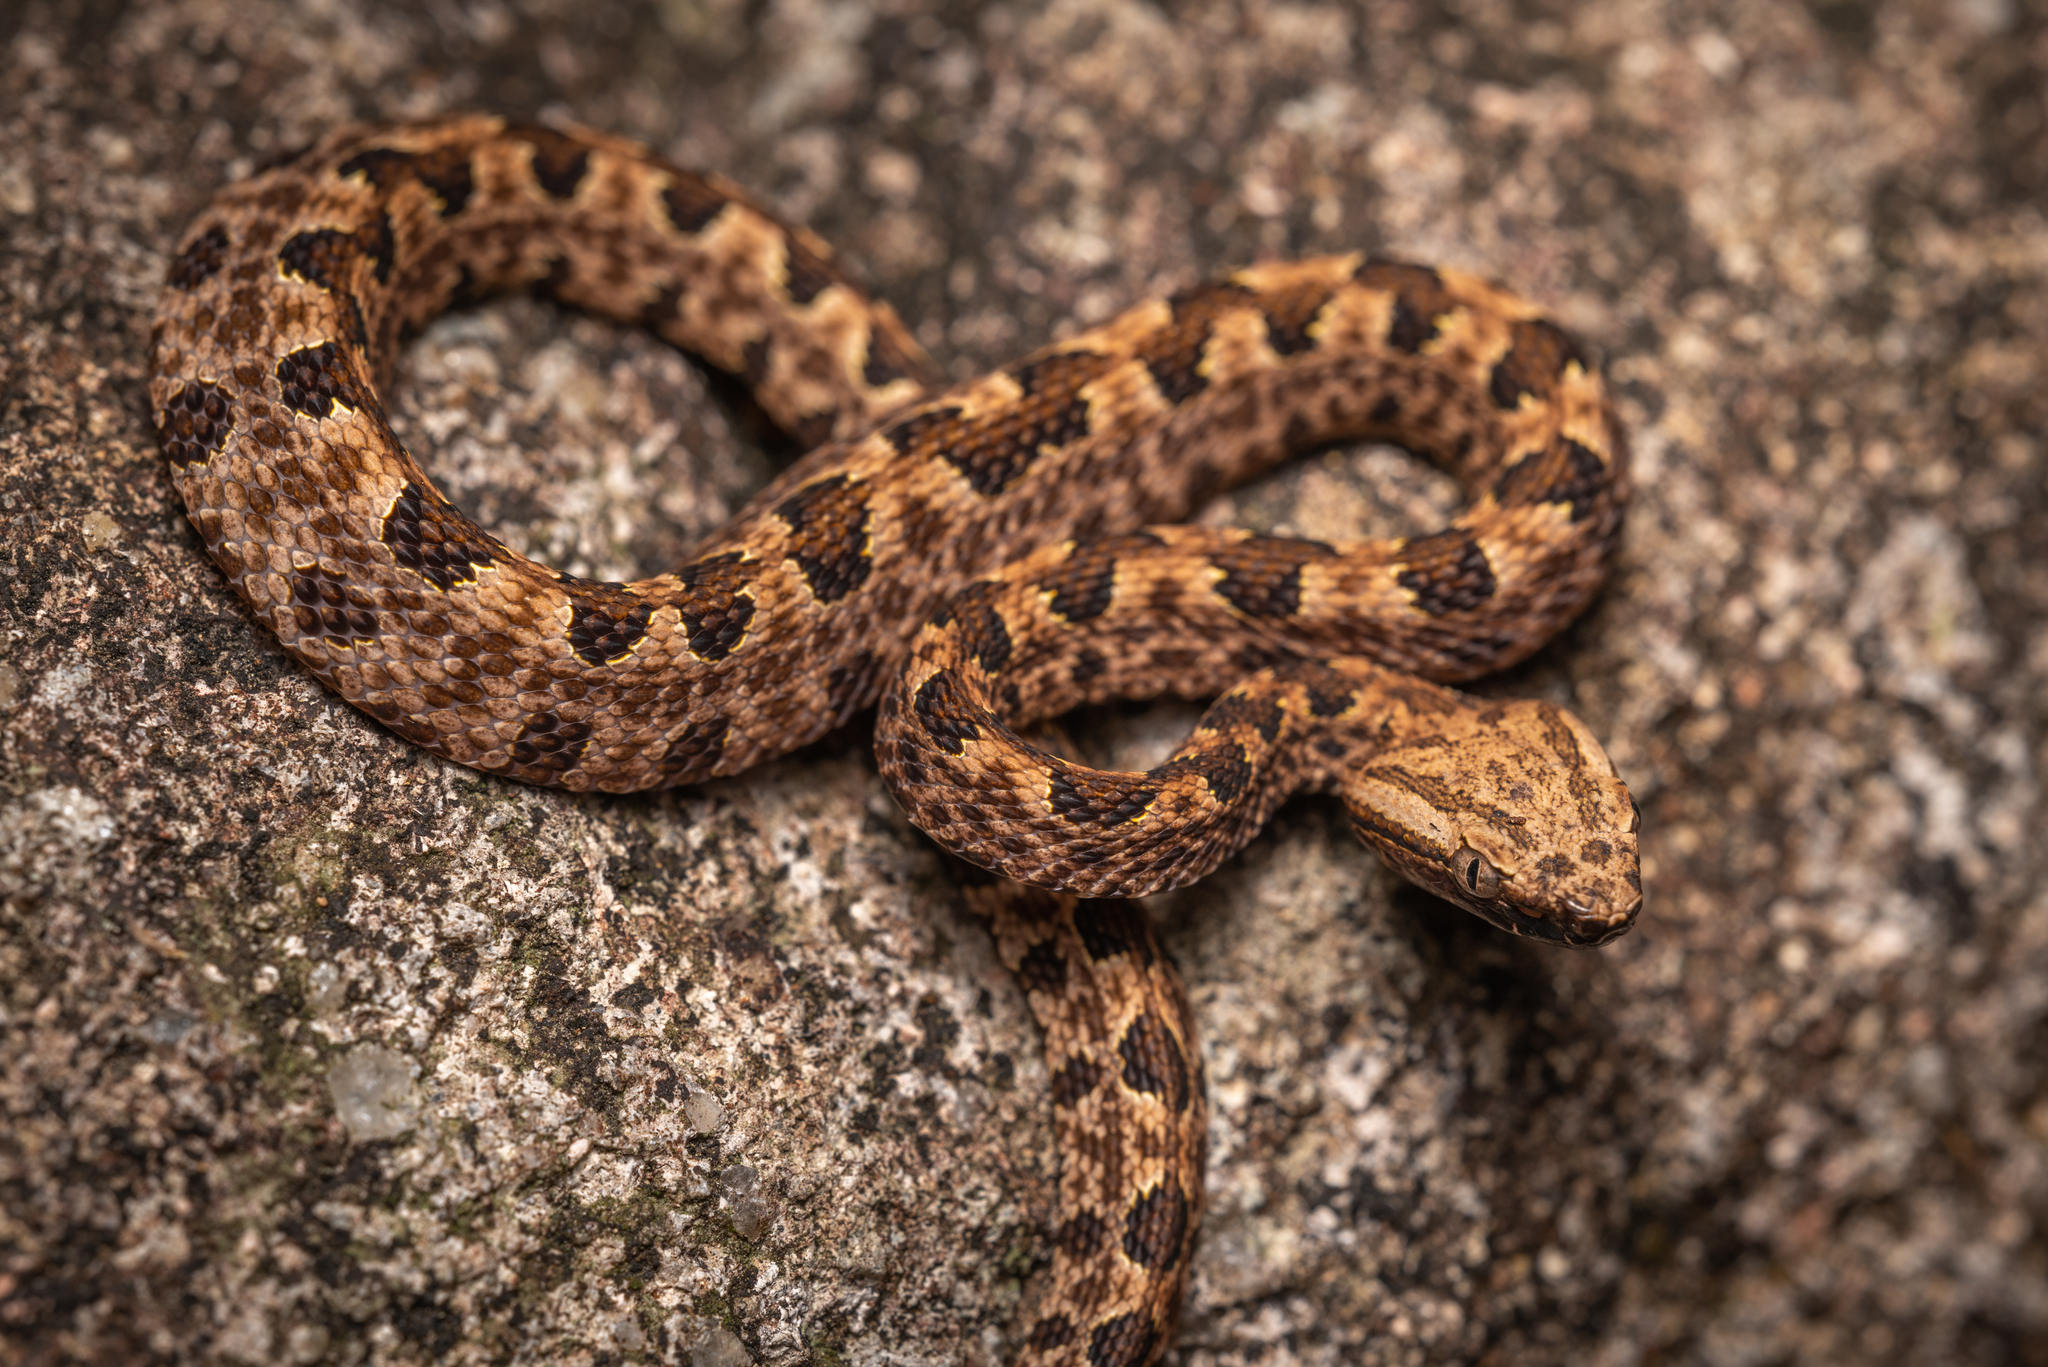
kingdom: Animalia
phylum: Chordata
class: Squamata
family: Viperidae
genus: Protobothrops
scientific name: Protobothrops mucrosquamatus
